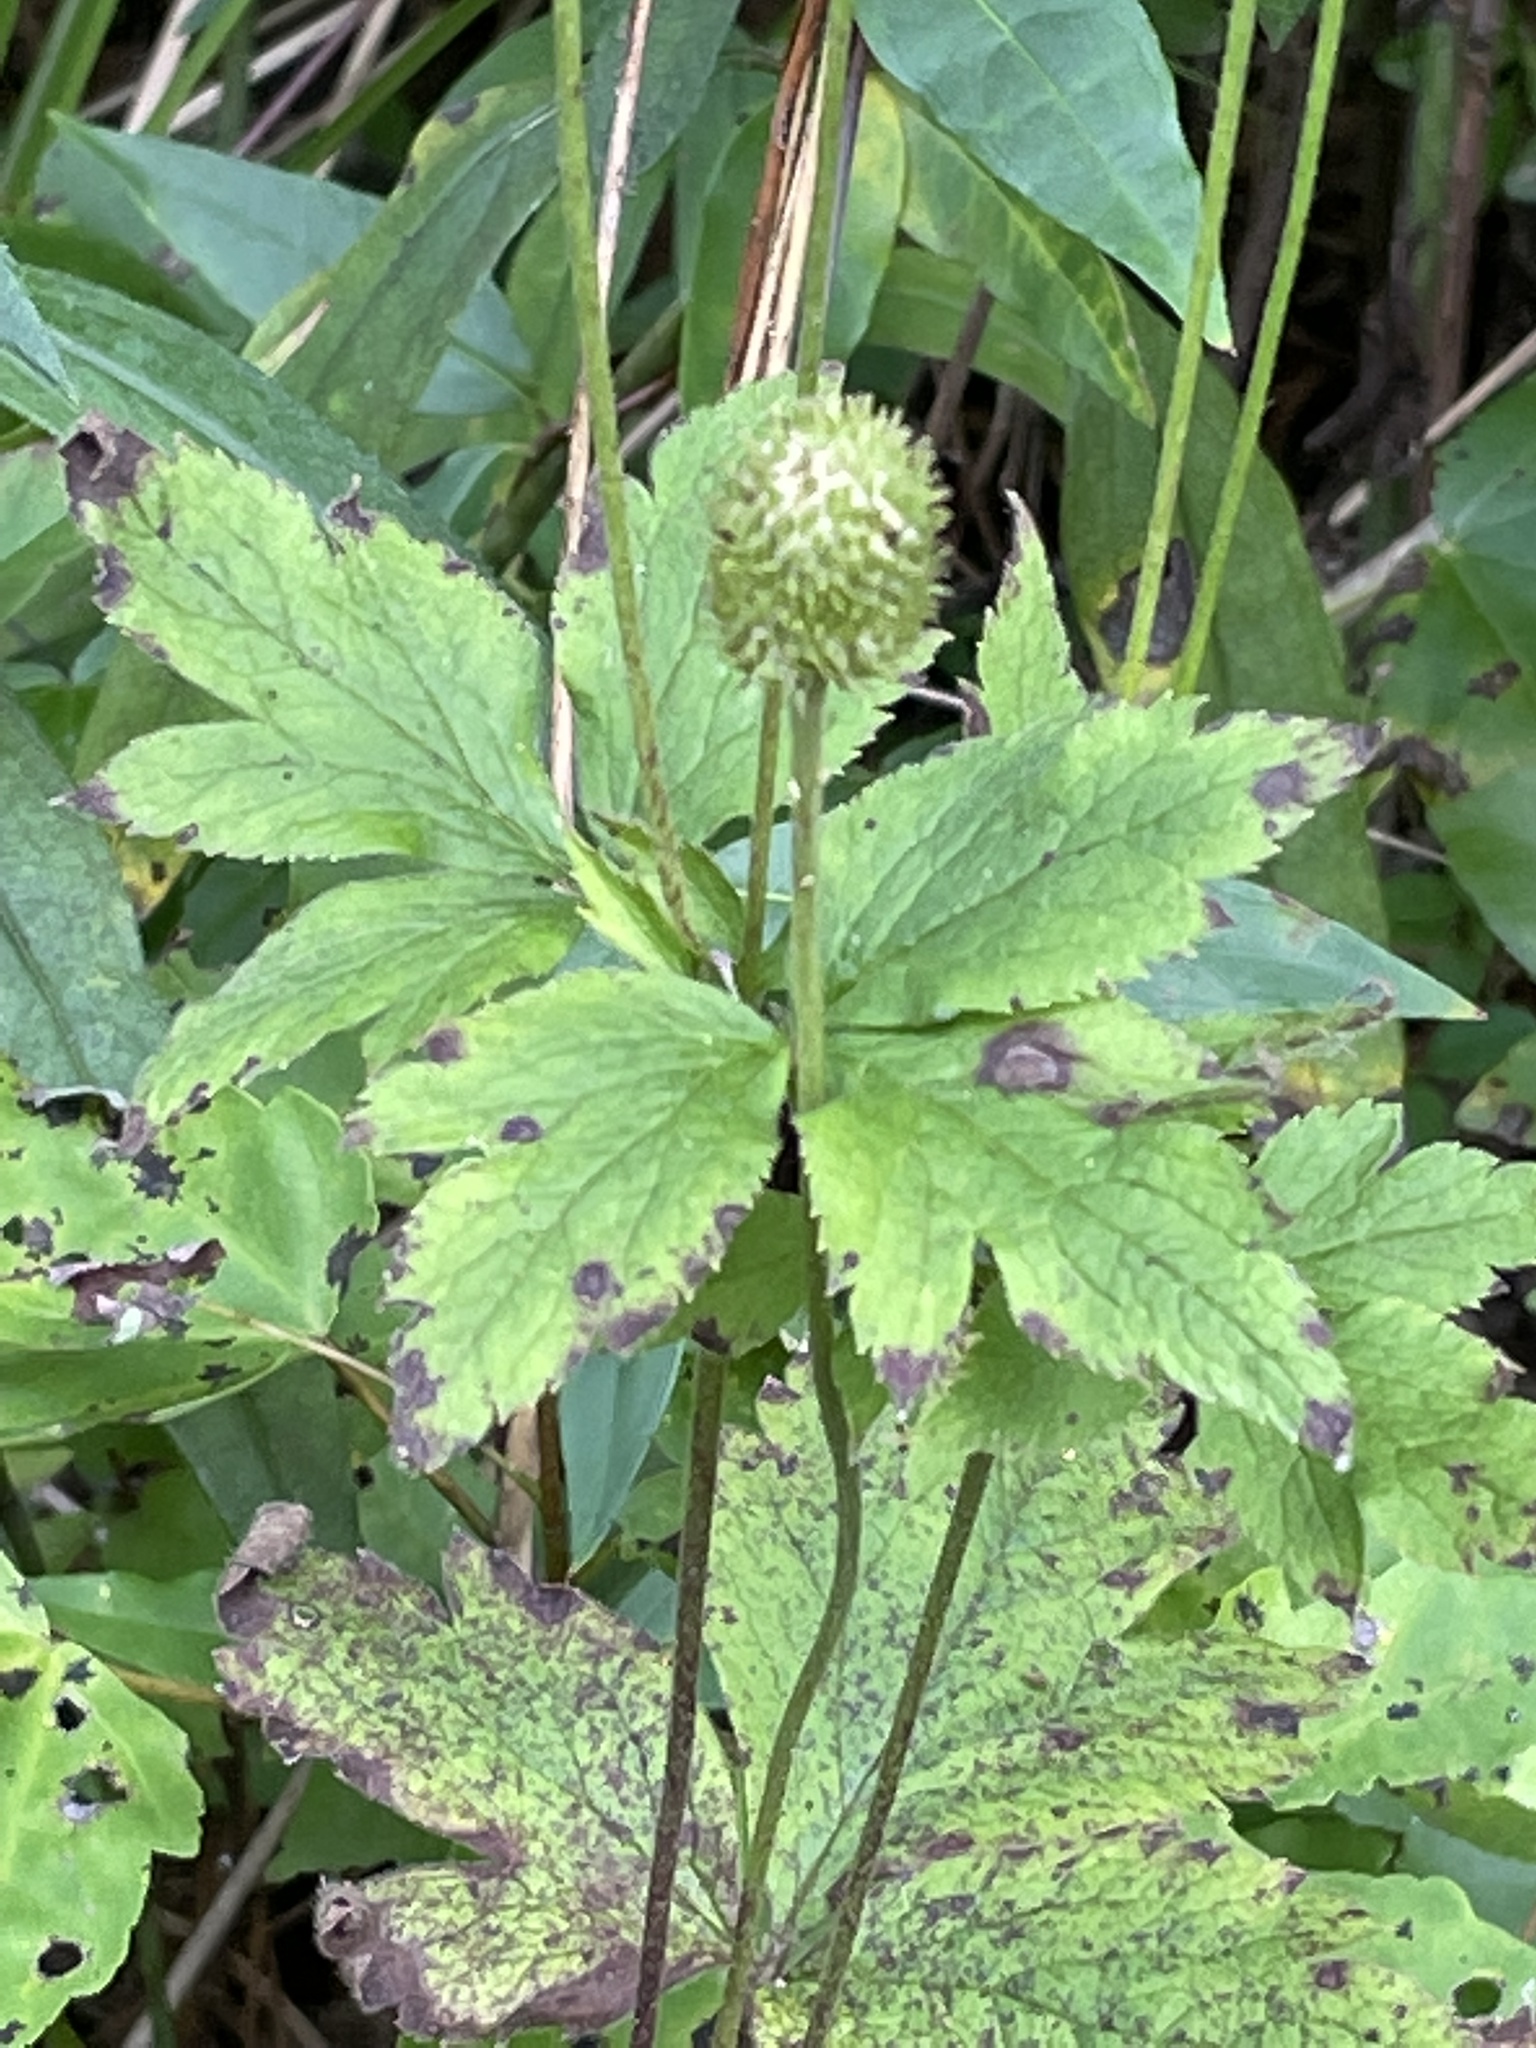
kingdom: Plantae
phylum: Tracheophyta
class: Magnoliopsida
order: Ranunculales
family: Ranunculaceae
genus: Anemone
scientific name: Anemone virginiana
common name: Tall anemone
